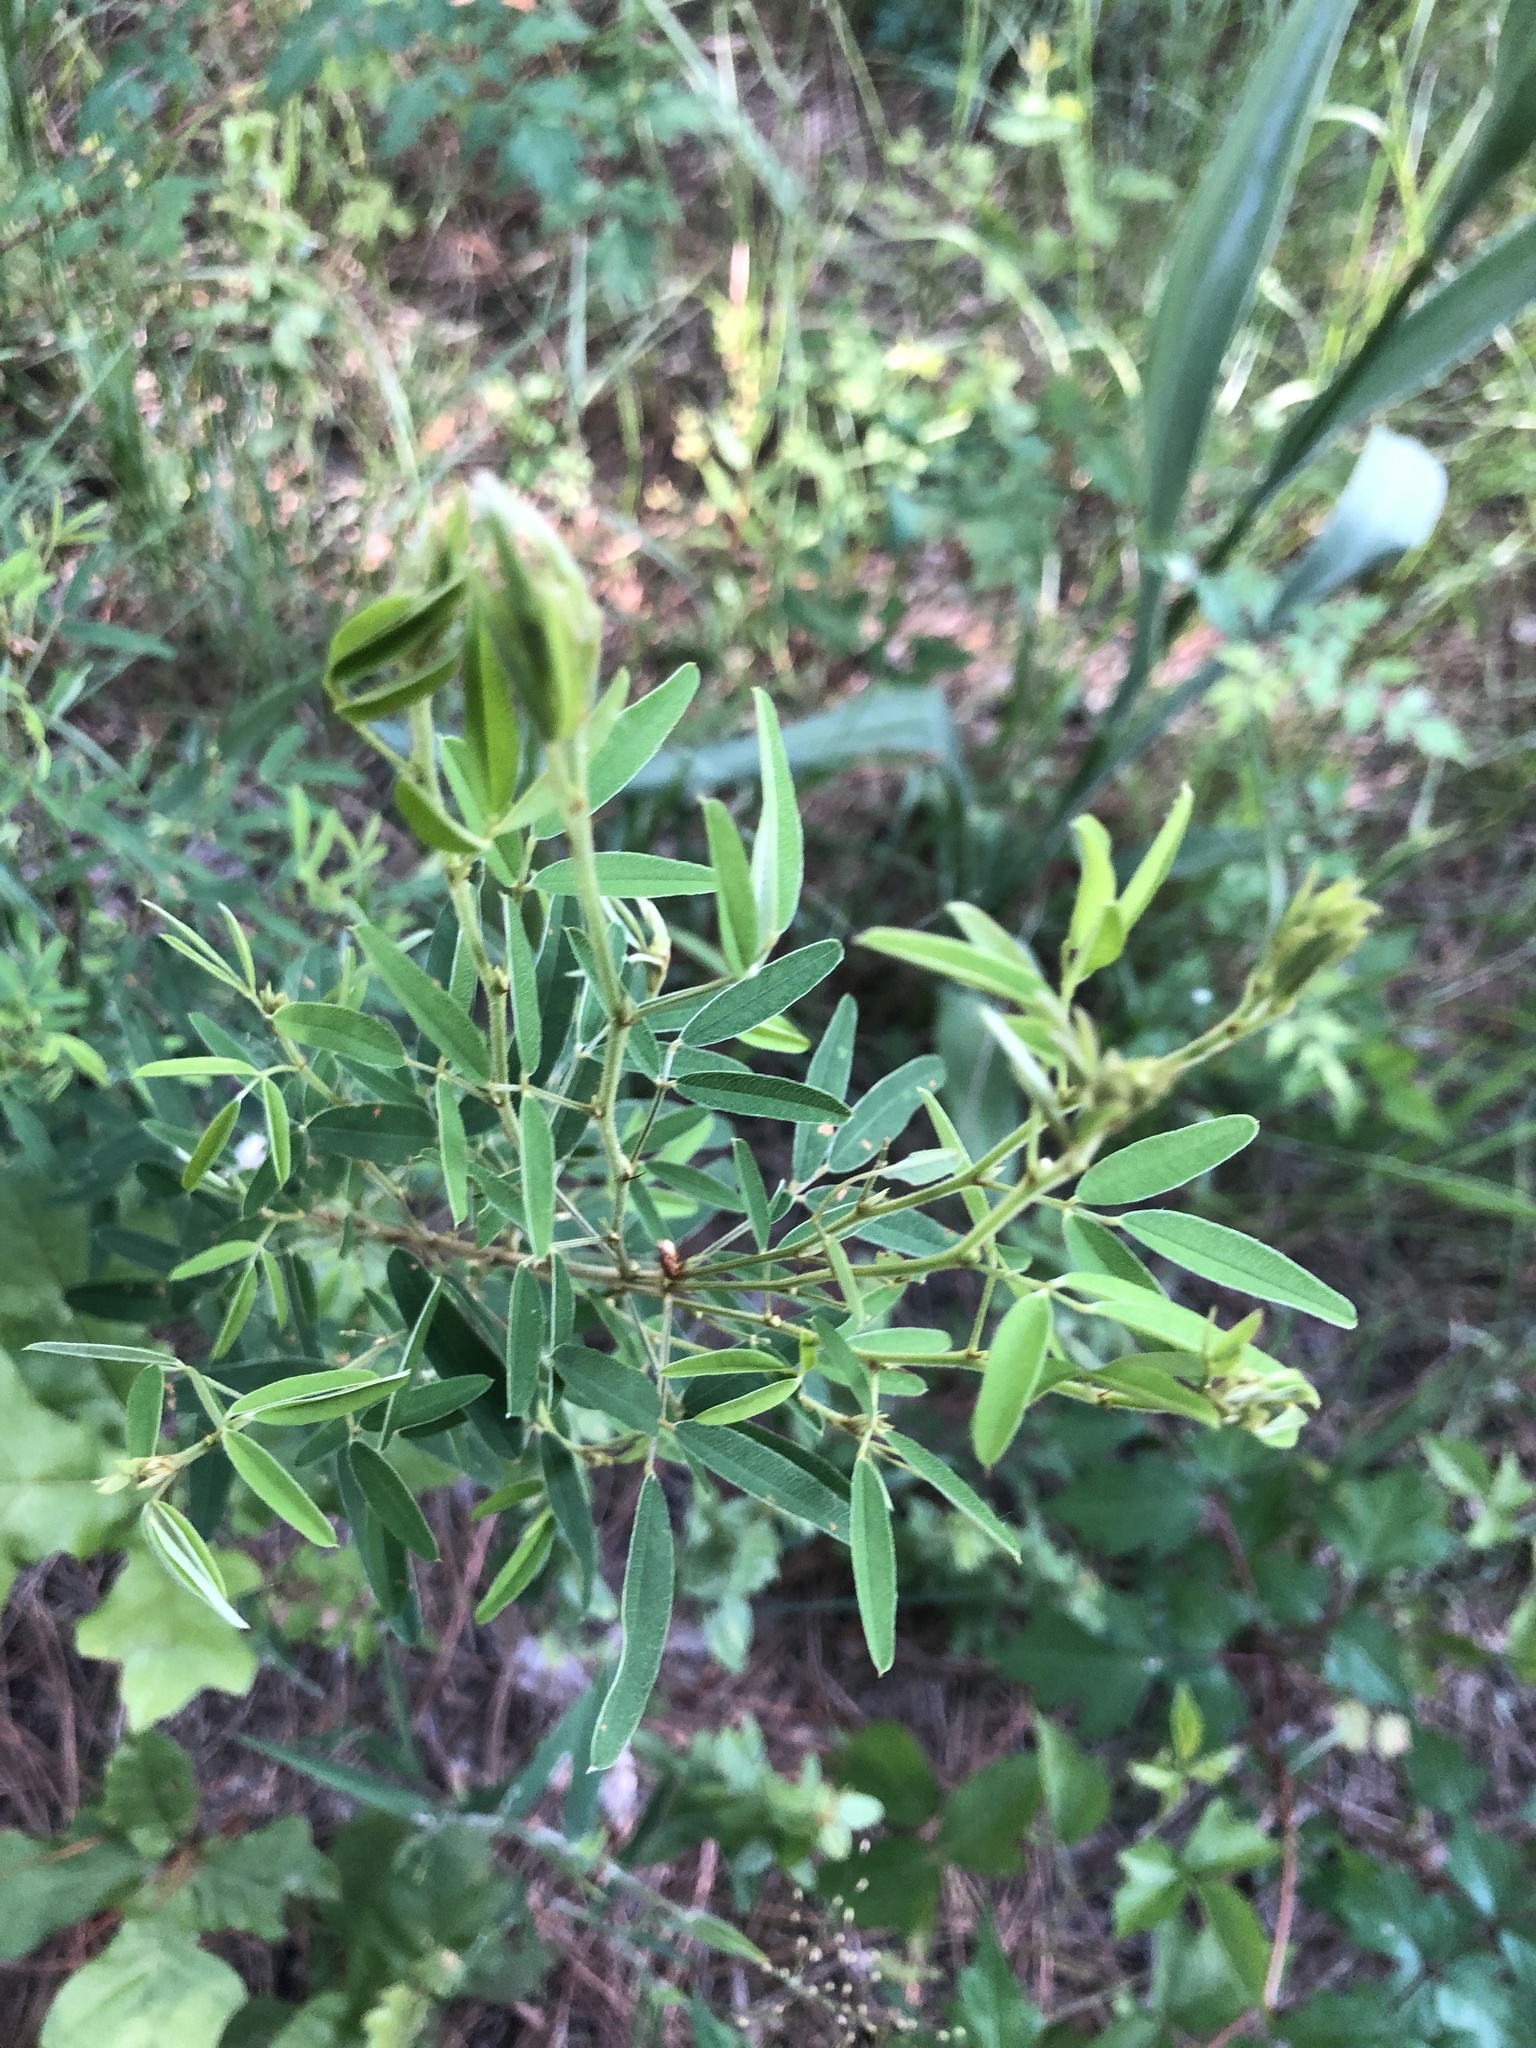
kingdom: Plantae
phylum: Tracheophyta
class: Magnoliopsida
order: Fabales
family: Fabaceae
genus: Lespedeza
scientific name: Lespedeza virginica
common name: Slender bush-clover
